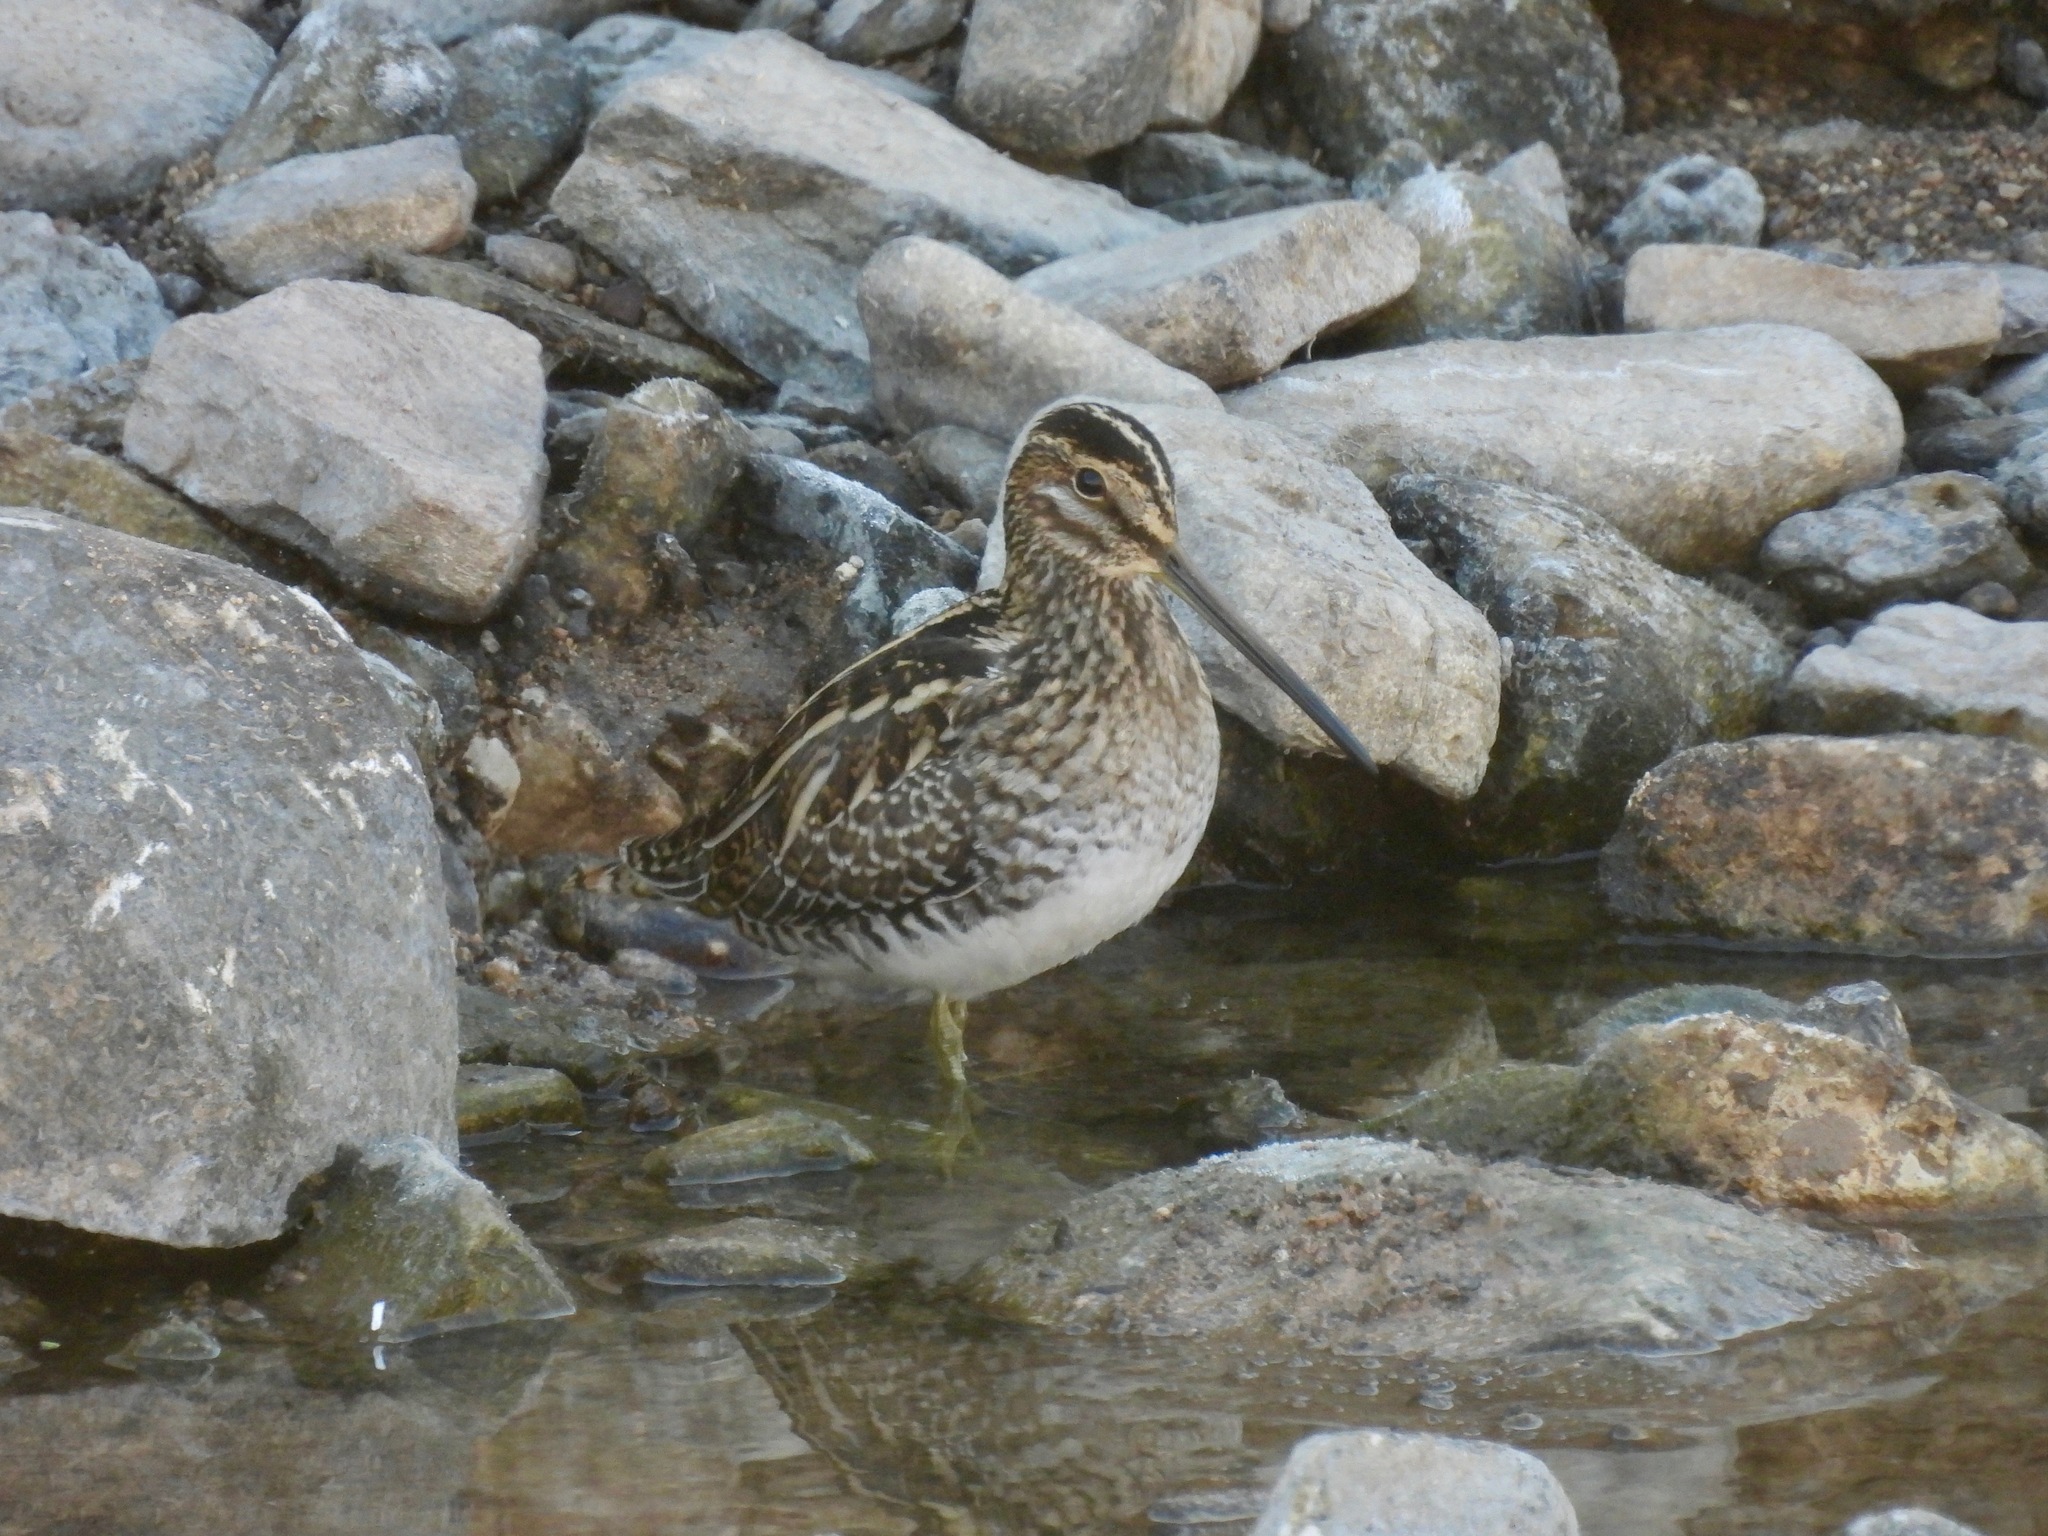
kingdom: Animalia
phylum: Chordata
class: Aves
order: Charadriiformes
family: Scolopacidae
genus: Gallinago
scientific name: Gallinago delicata
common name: Wilson's snipe
